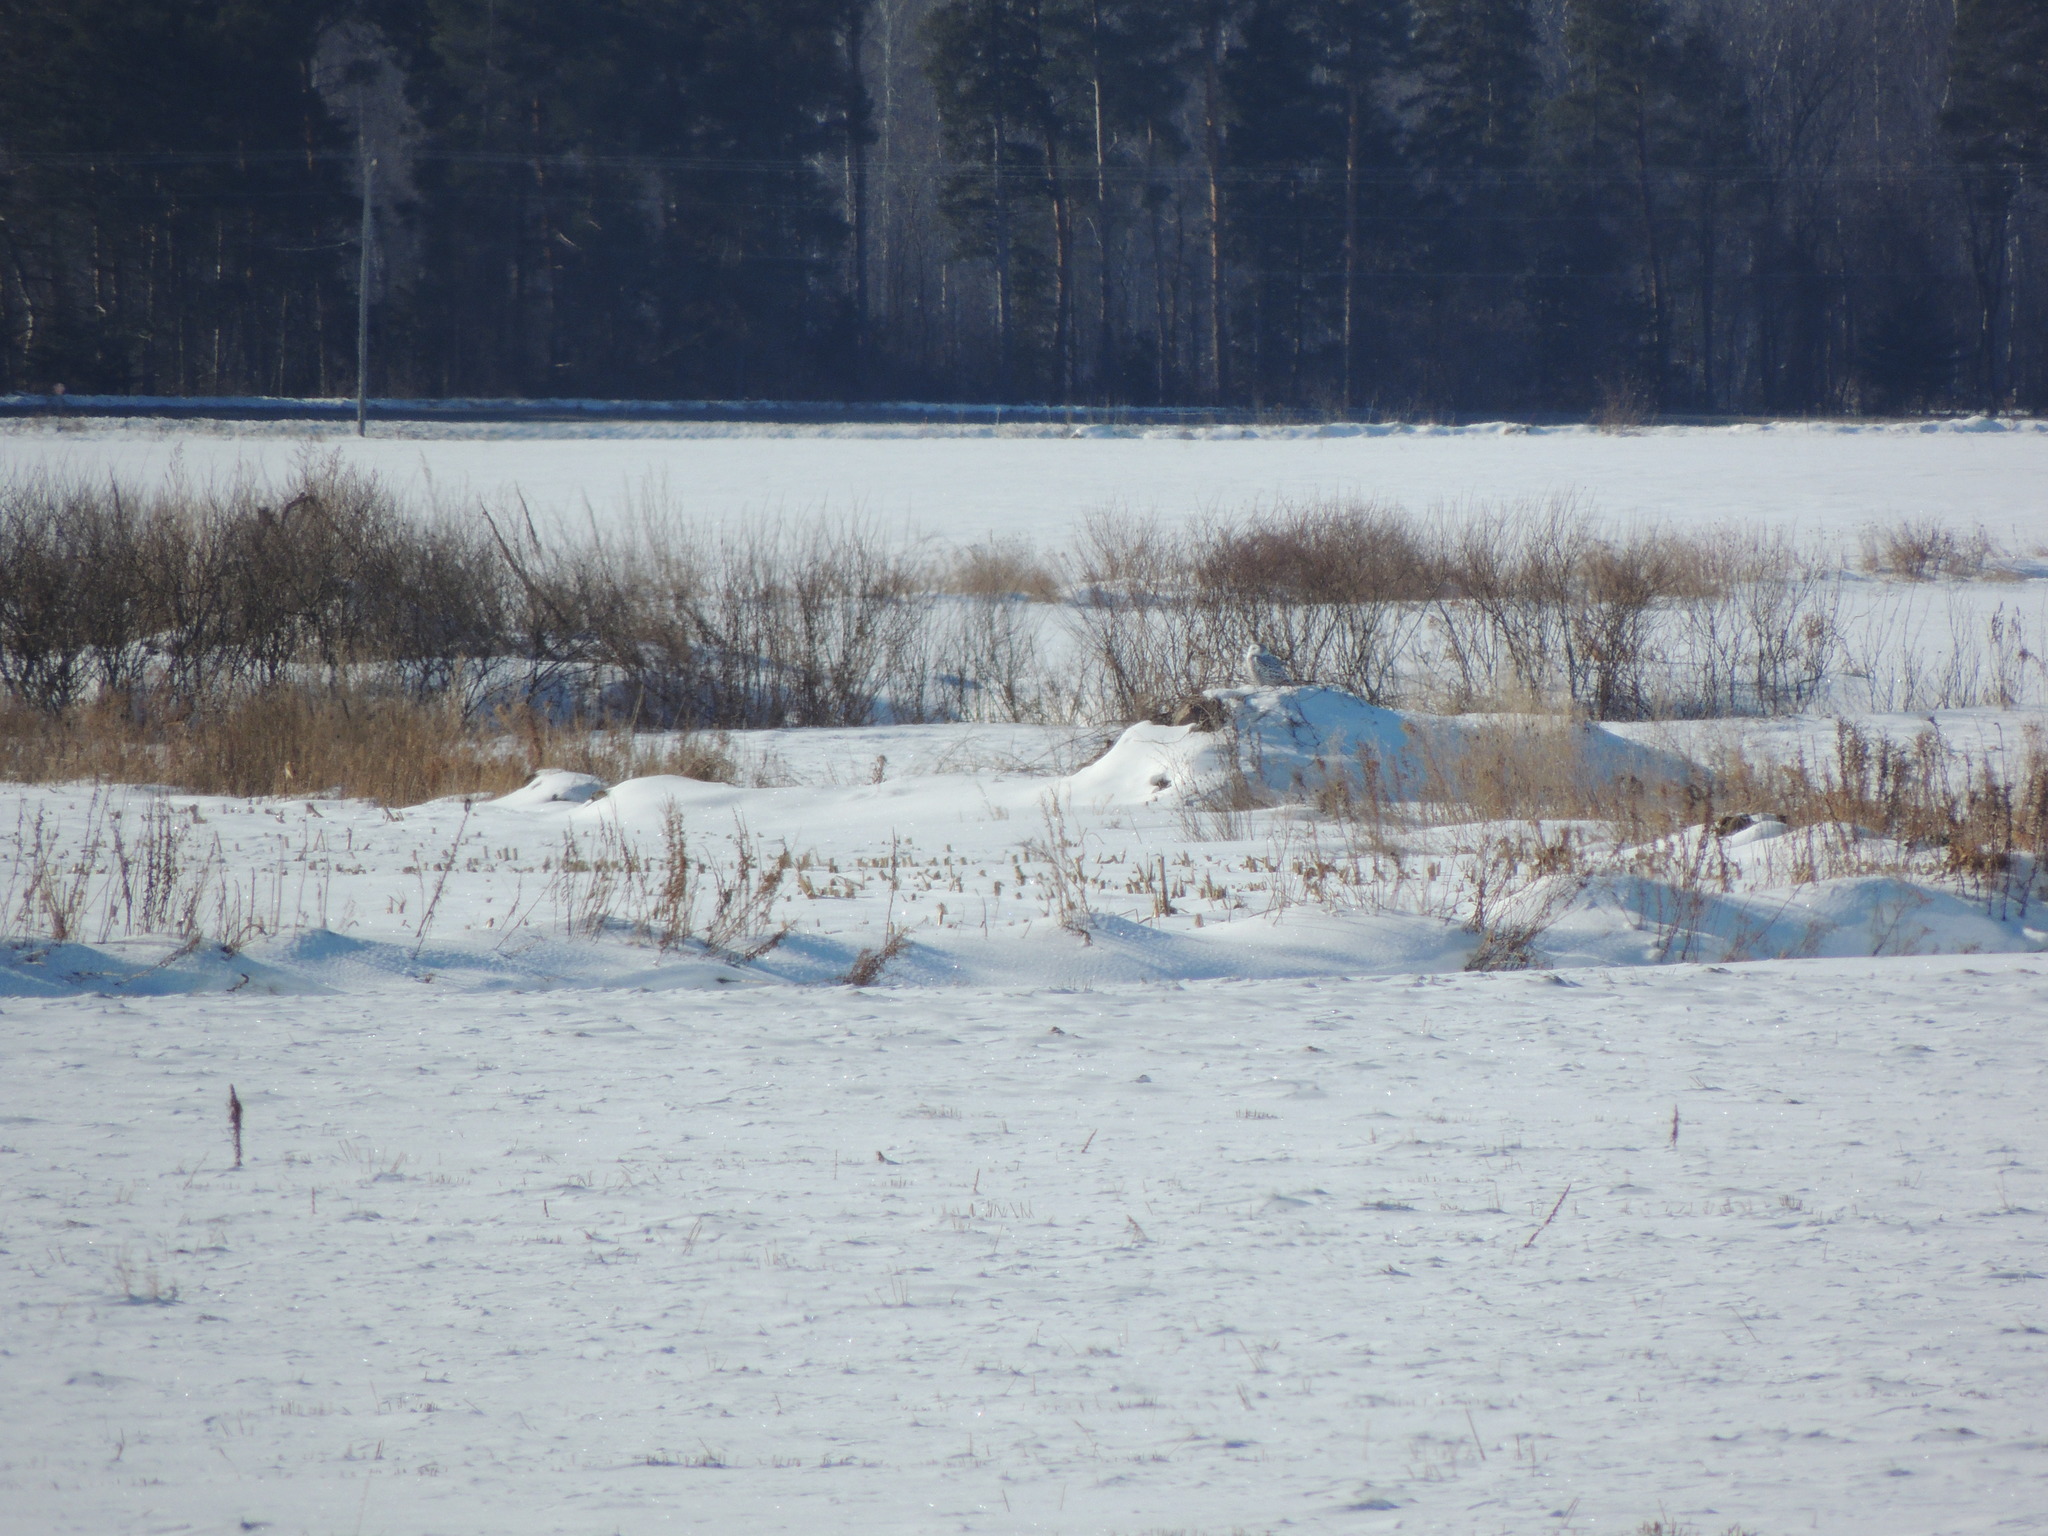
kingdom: Animalia
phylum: Chordata
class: Aves
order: Strigiformes
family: Strigidae
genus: Bubo
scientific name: Bubo scandiacus
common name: Snowy owl
